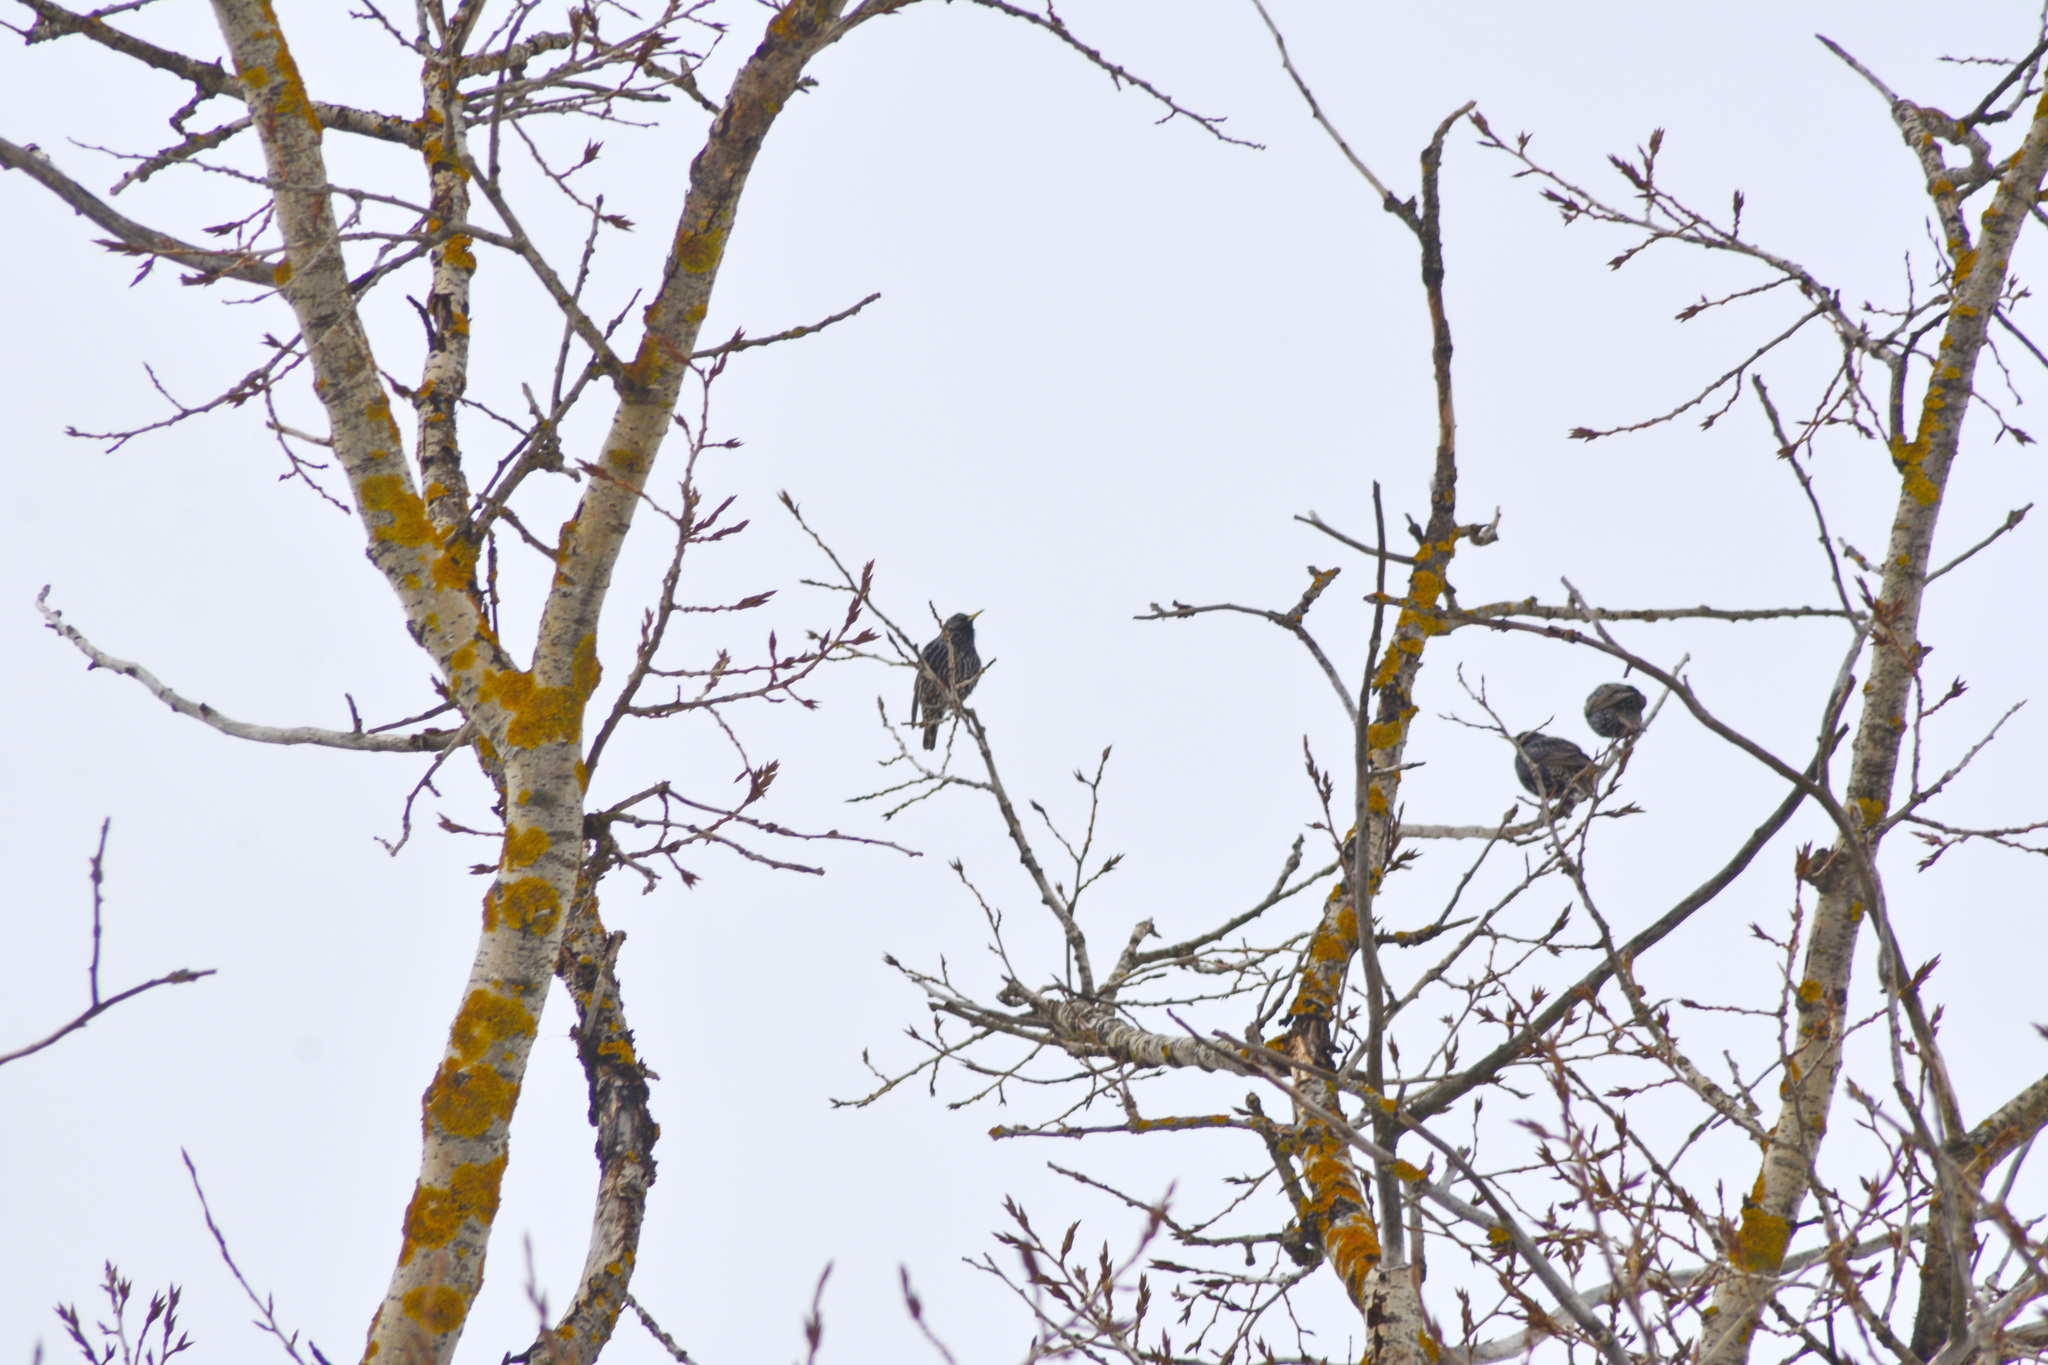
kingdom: Animalia
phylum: Chordata
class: Aves
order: Passeriformes
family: Sturnidae
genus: Sturnus
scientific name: Sturnus vulgaris
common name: Common starling
